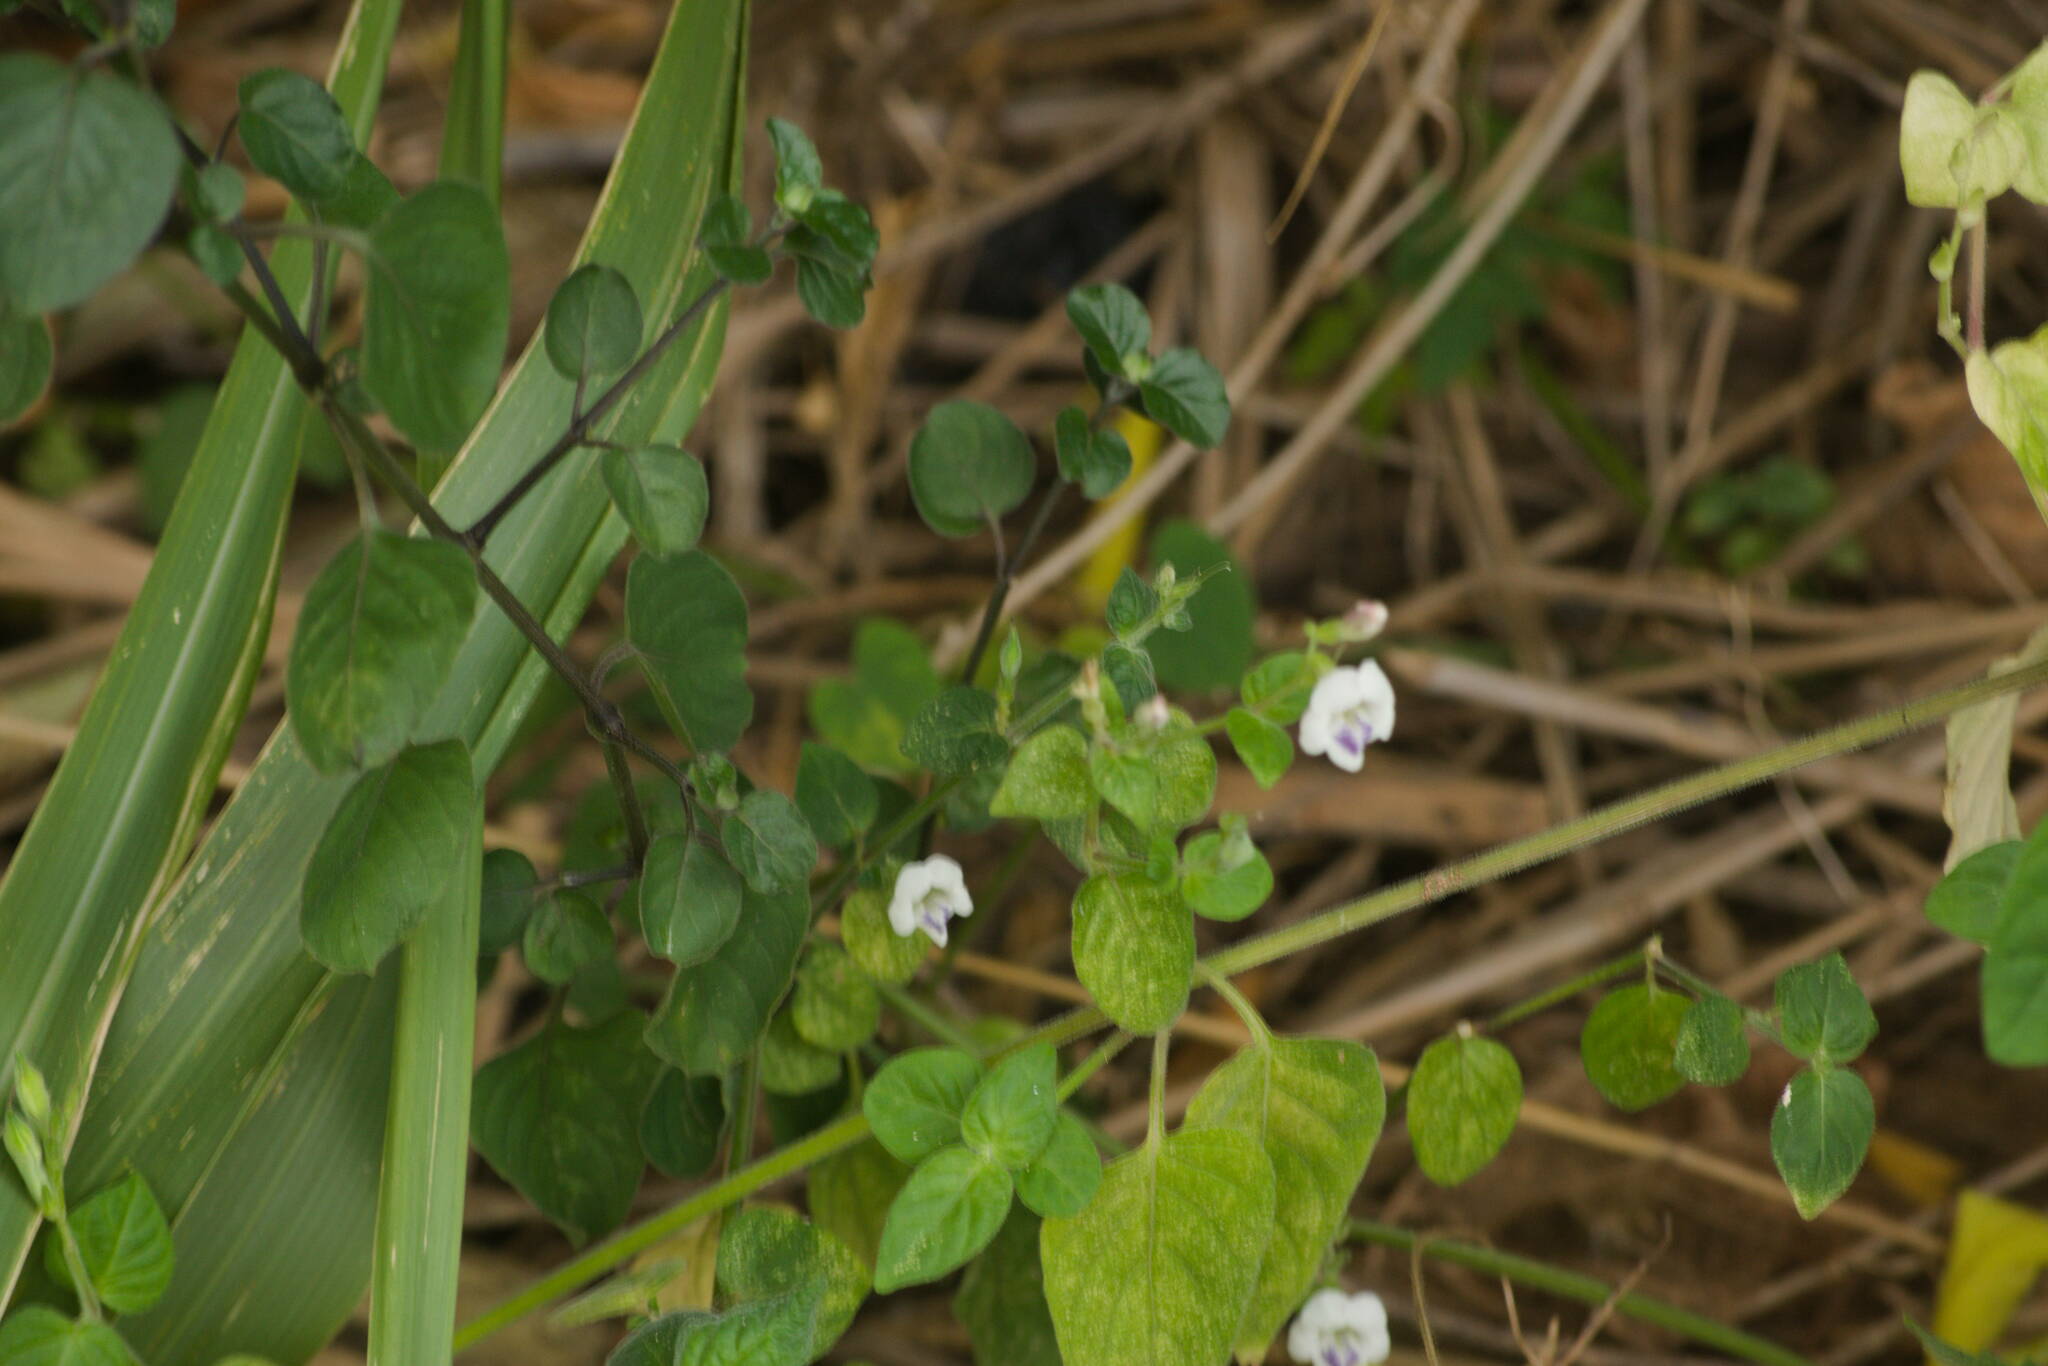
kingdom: Plantae
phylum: Tracheophyta
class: Magnoliopsida
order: Lamiales
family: Acanthaceae
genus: Asystasia
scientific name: Asystasia intrusa
